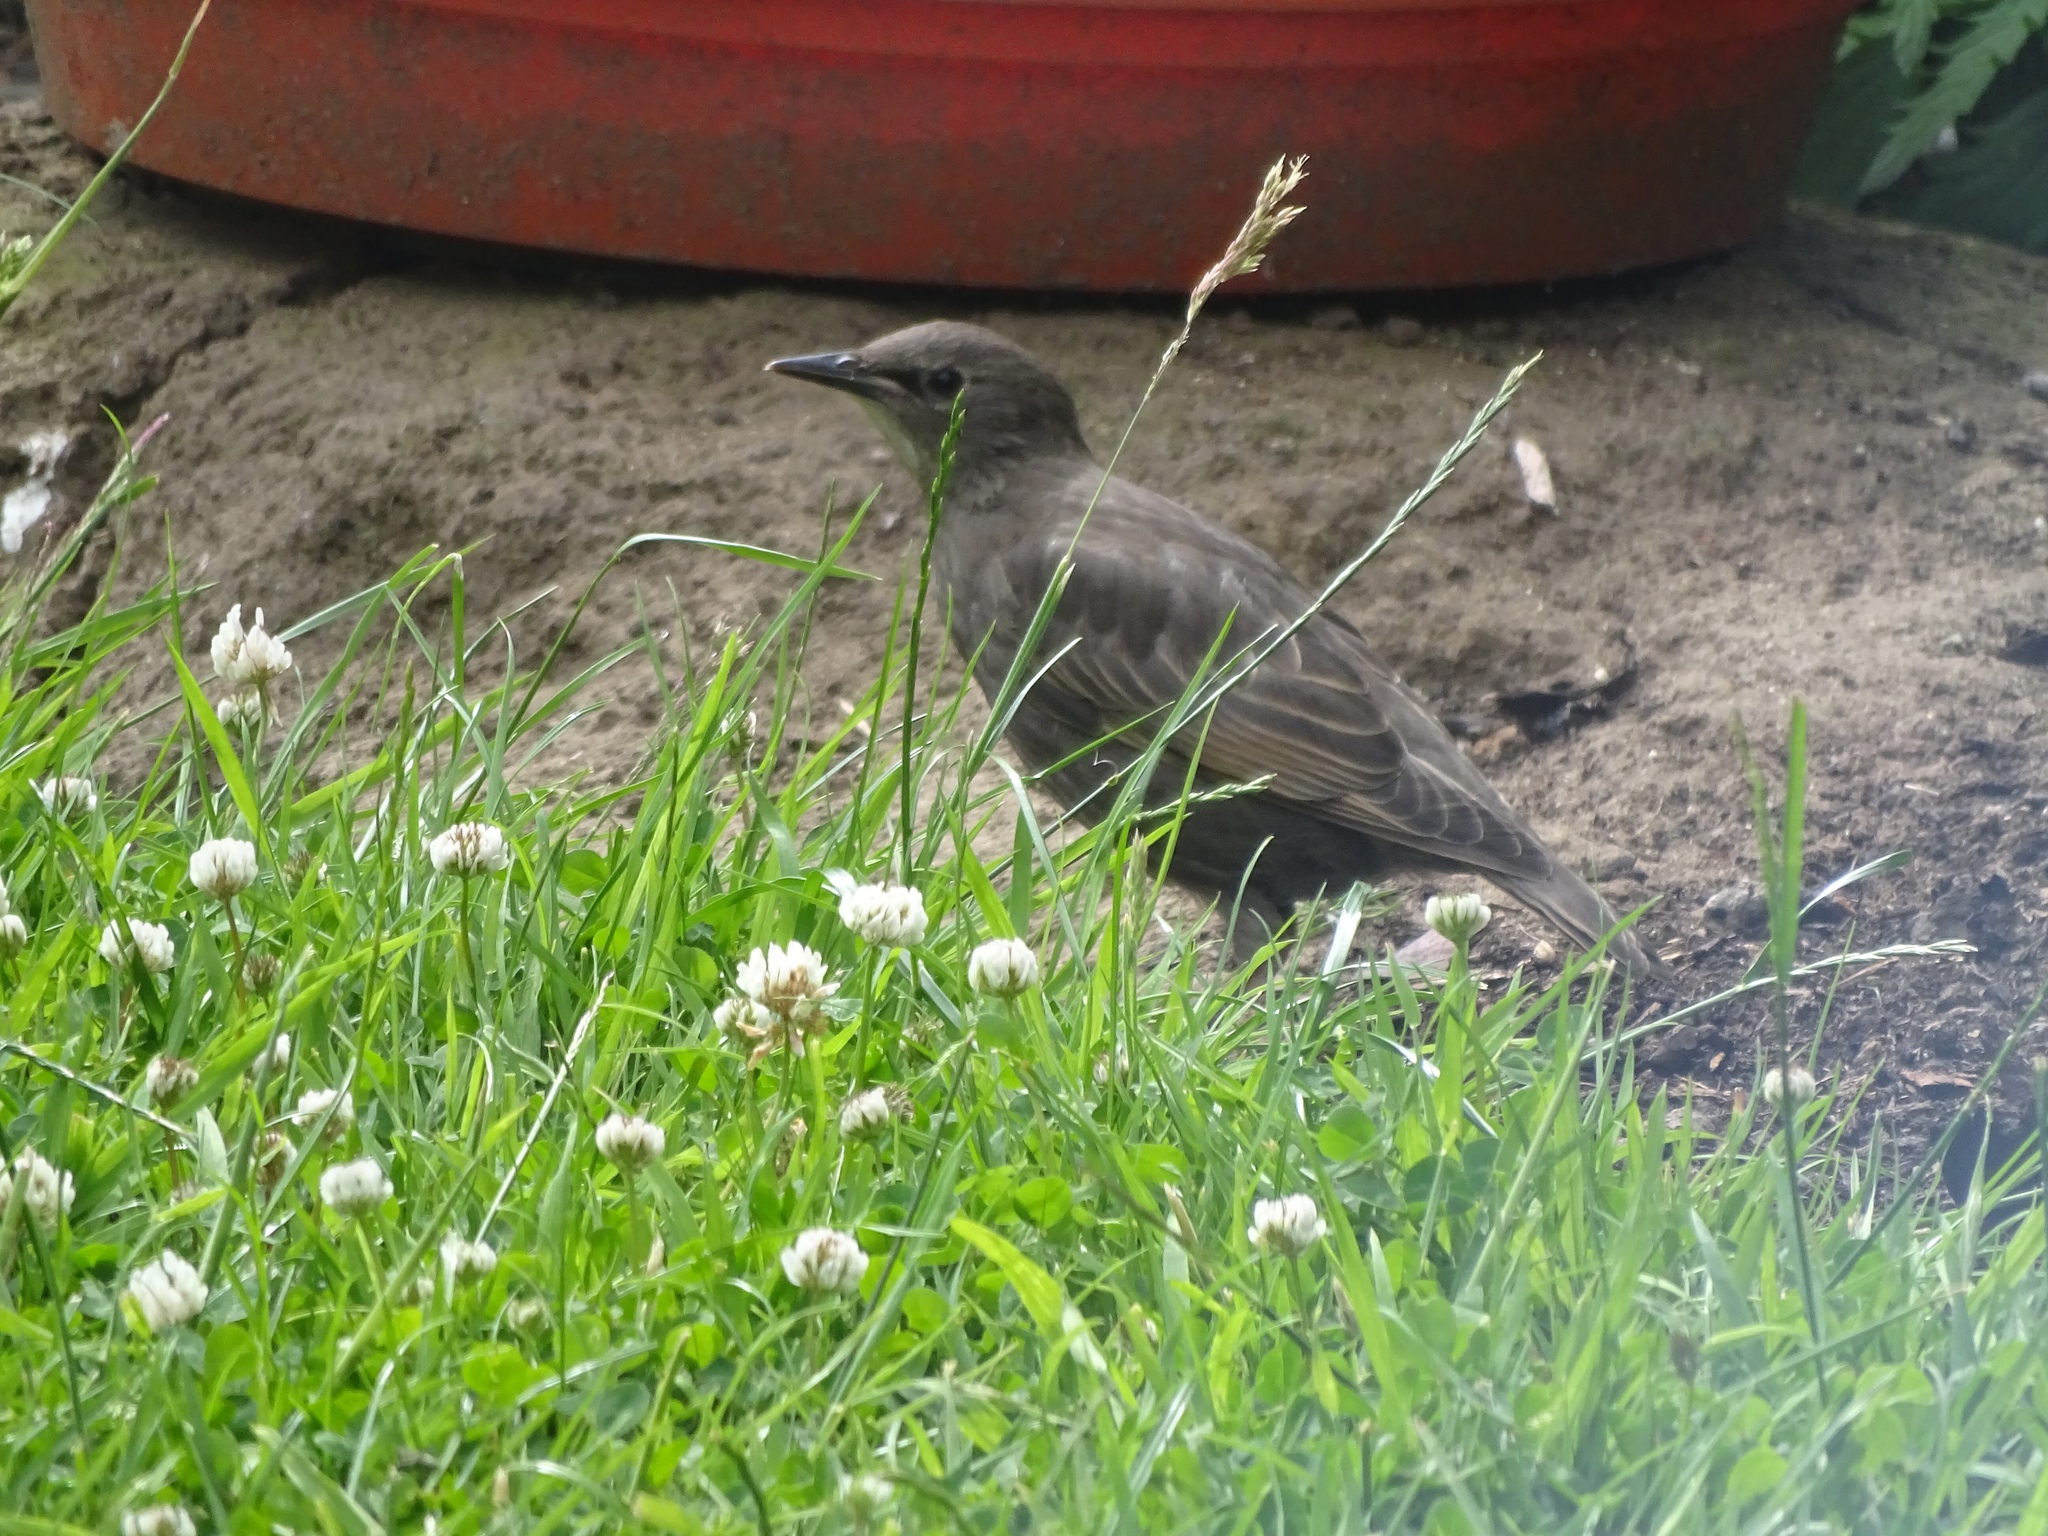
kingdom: Animalia
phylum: Chordata
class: Aves
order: Passeriformes
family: Sturnidae
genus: Sturnus
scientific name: Sturnus vulgaris
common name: Common starling
